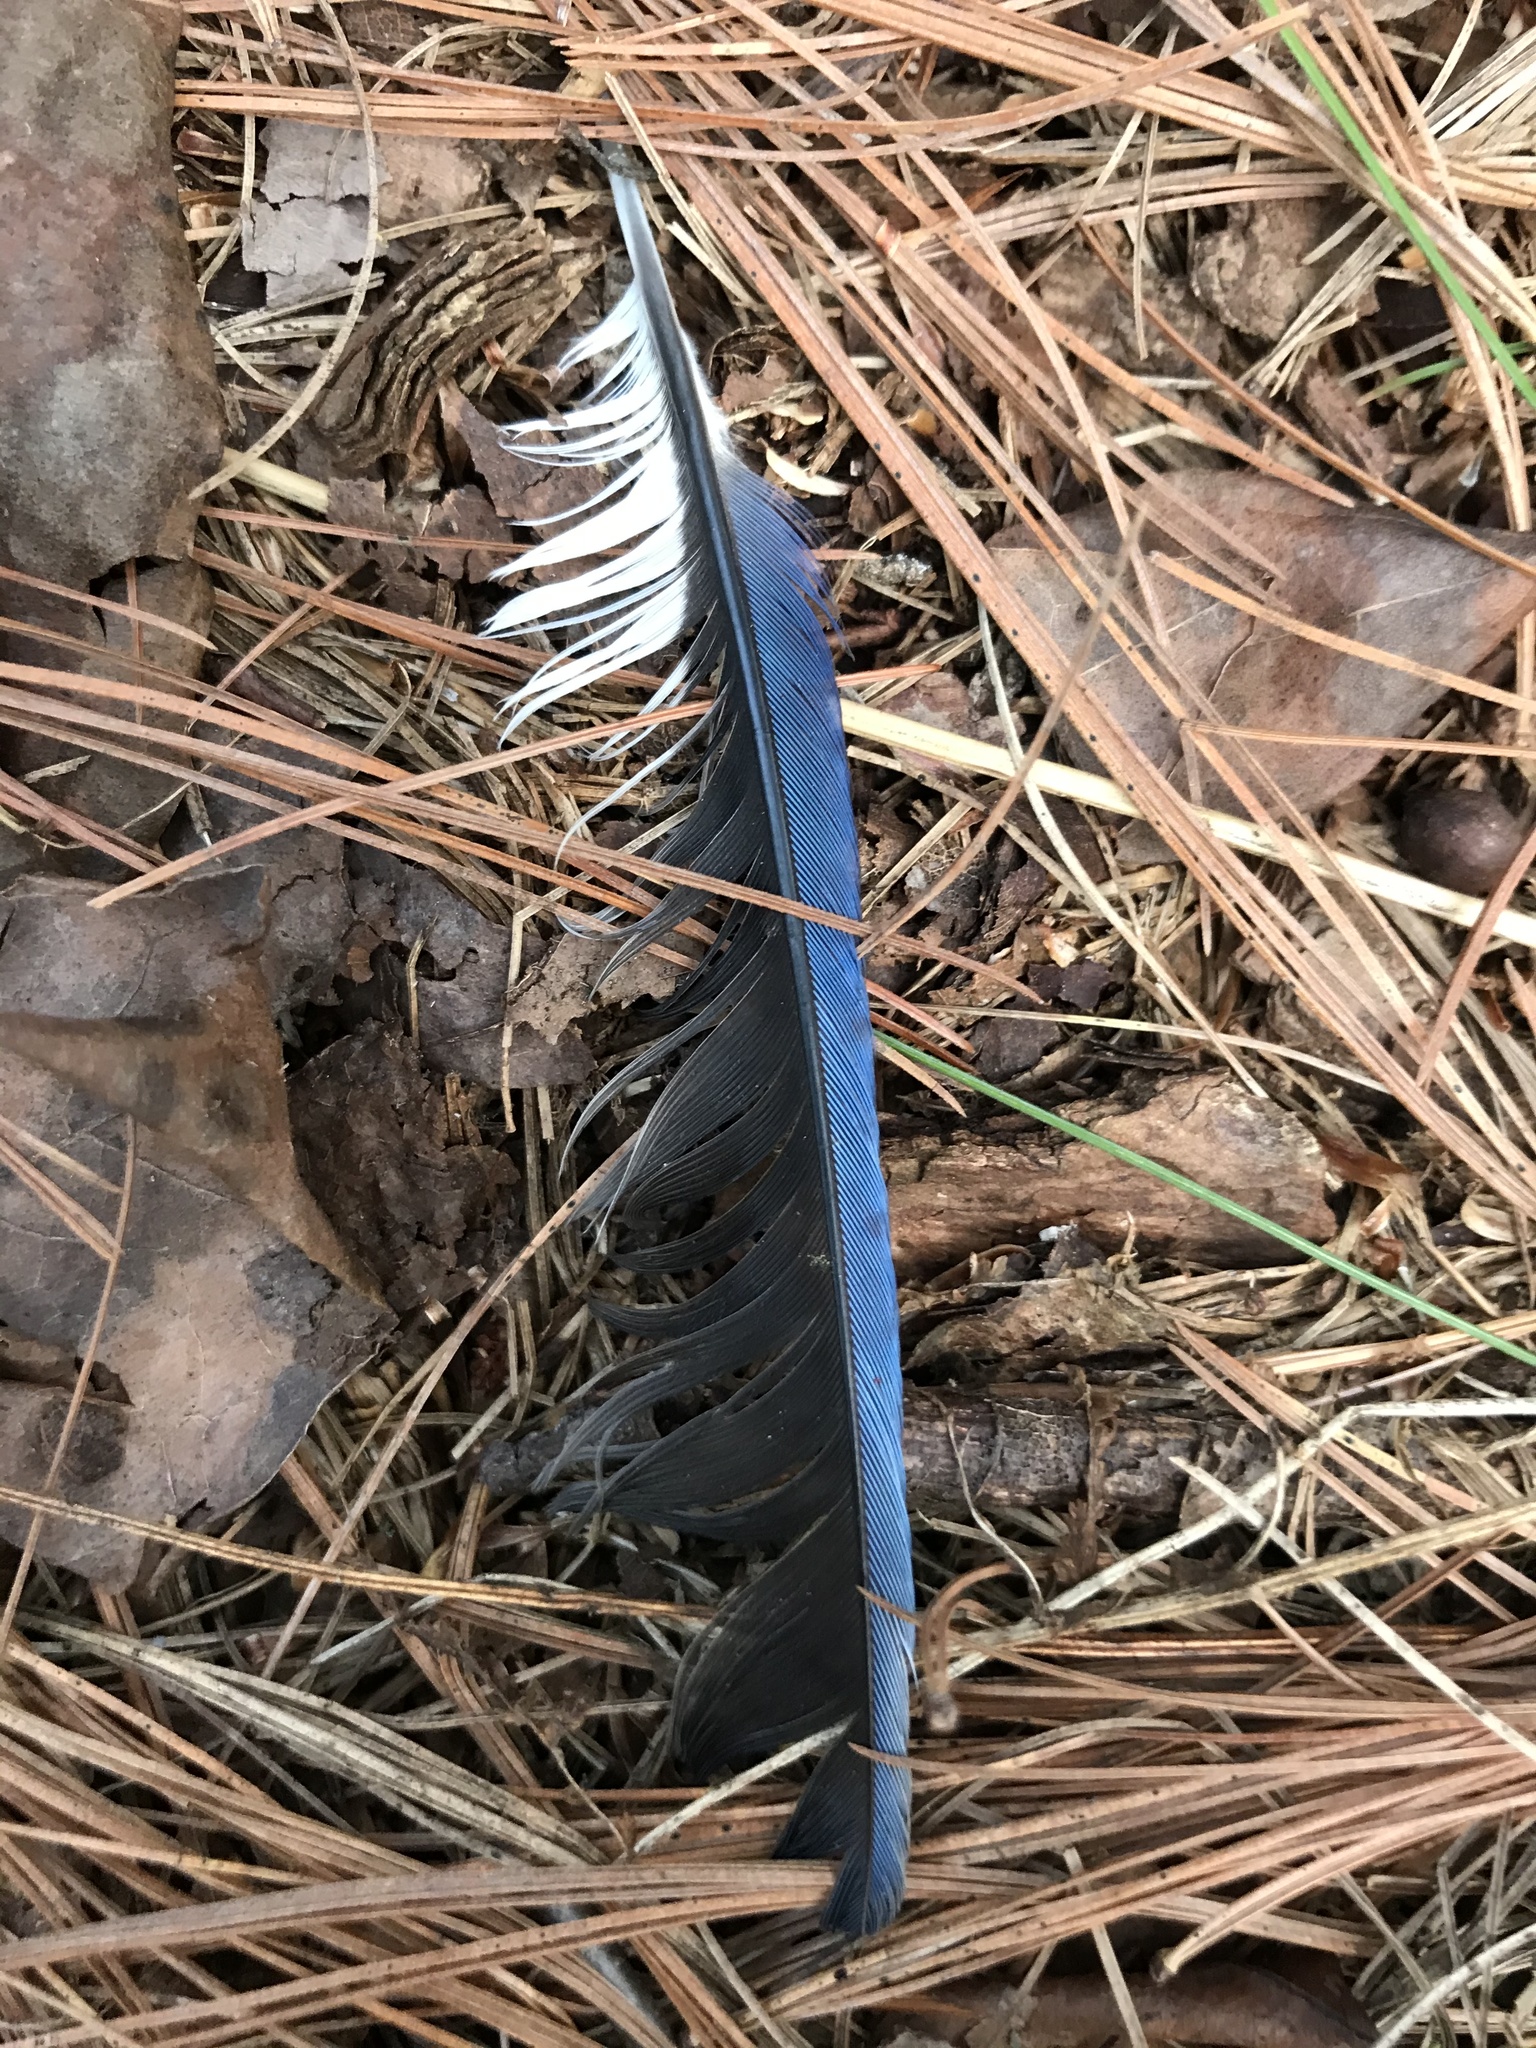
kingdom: Animalia
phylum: Chordata
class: Aves
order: Passeriformes
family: Corvidae
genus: Cyanocitta
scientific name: Cyanocitta cristata
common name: Blue jay
